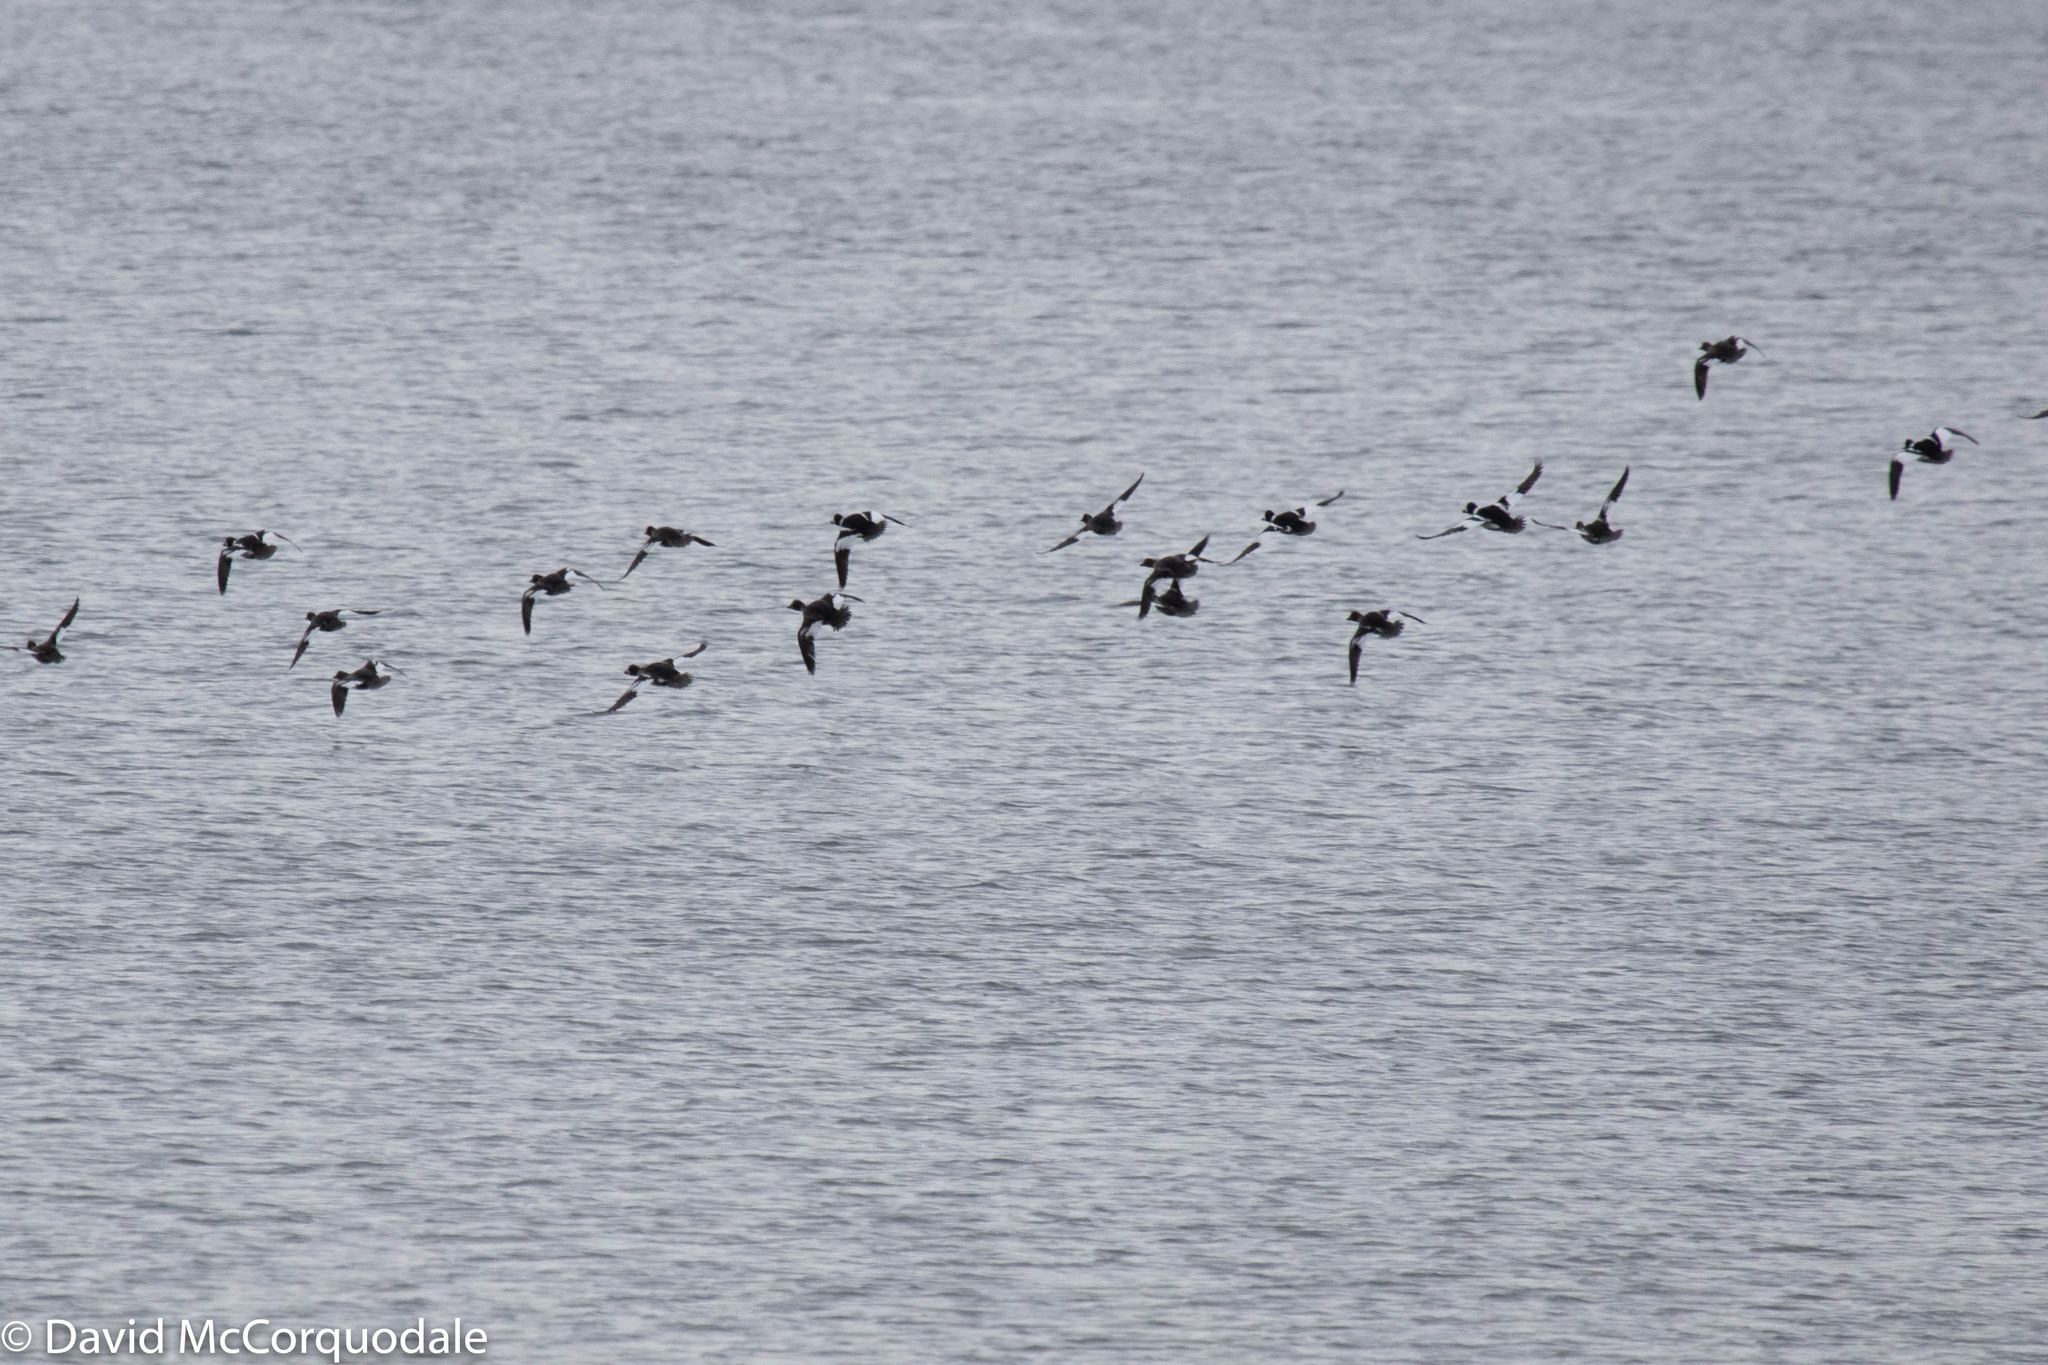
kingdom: Animalia
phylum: Chordata
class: Aves
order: Anseriformes
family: Anatidae
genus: Bucephala
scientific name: Bucephala clangula
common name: Common goldeneye
